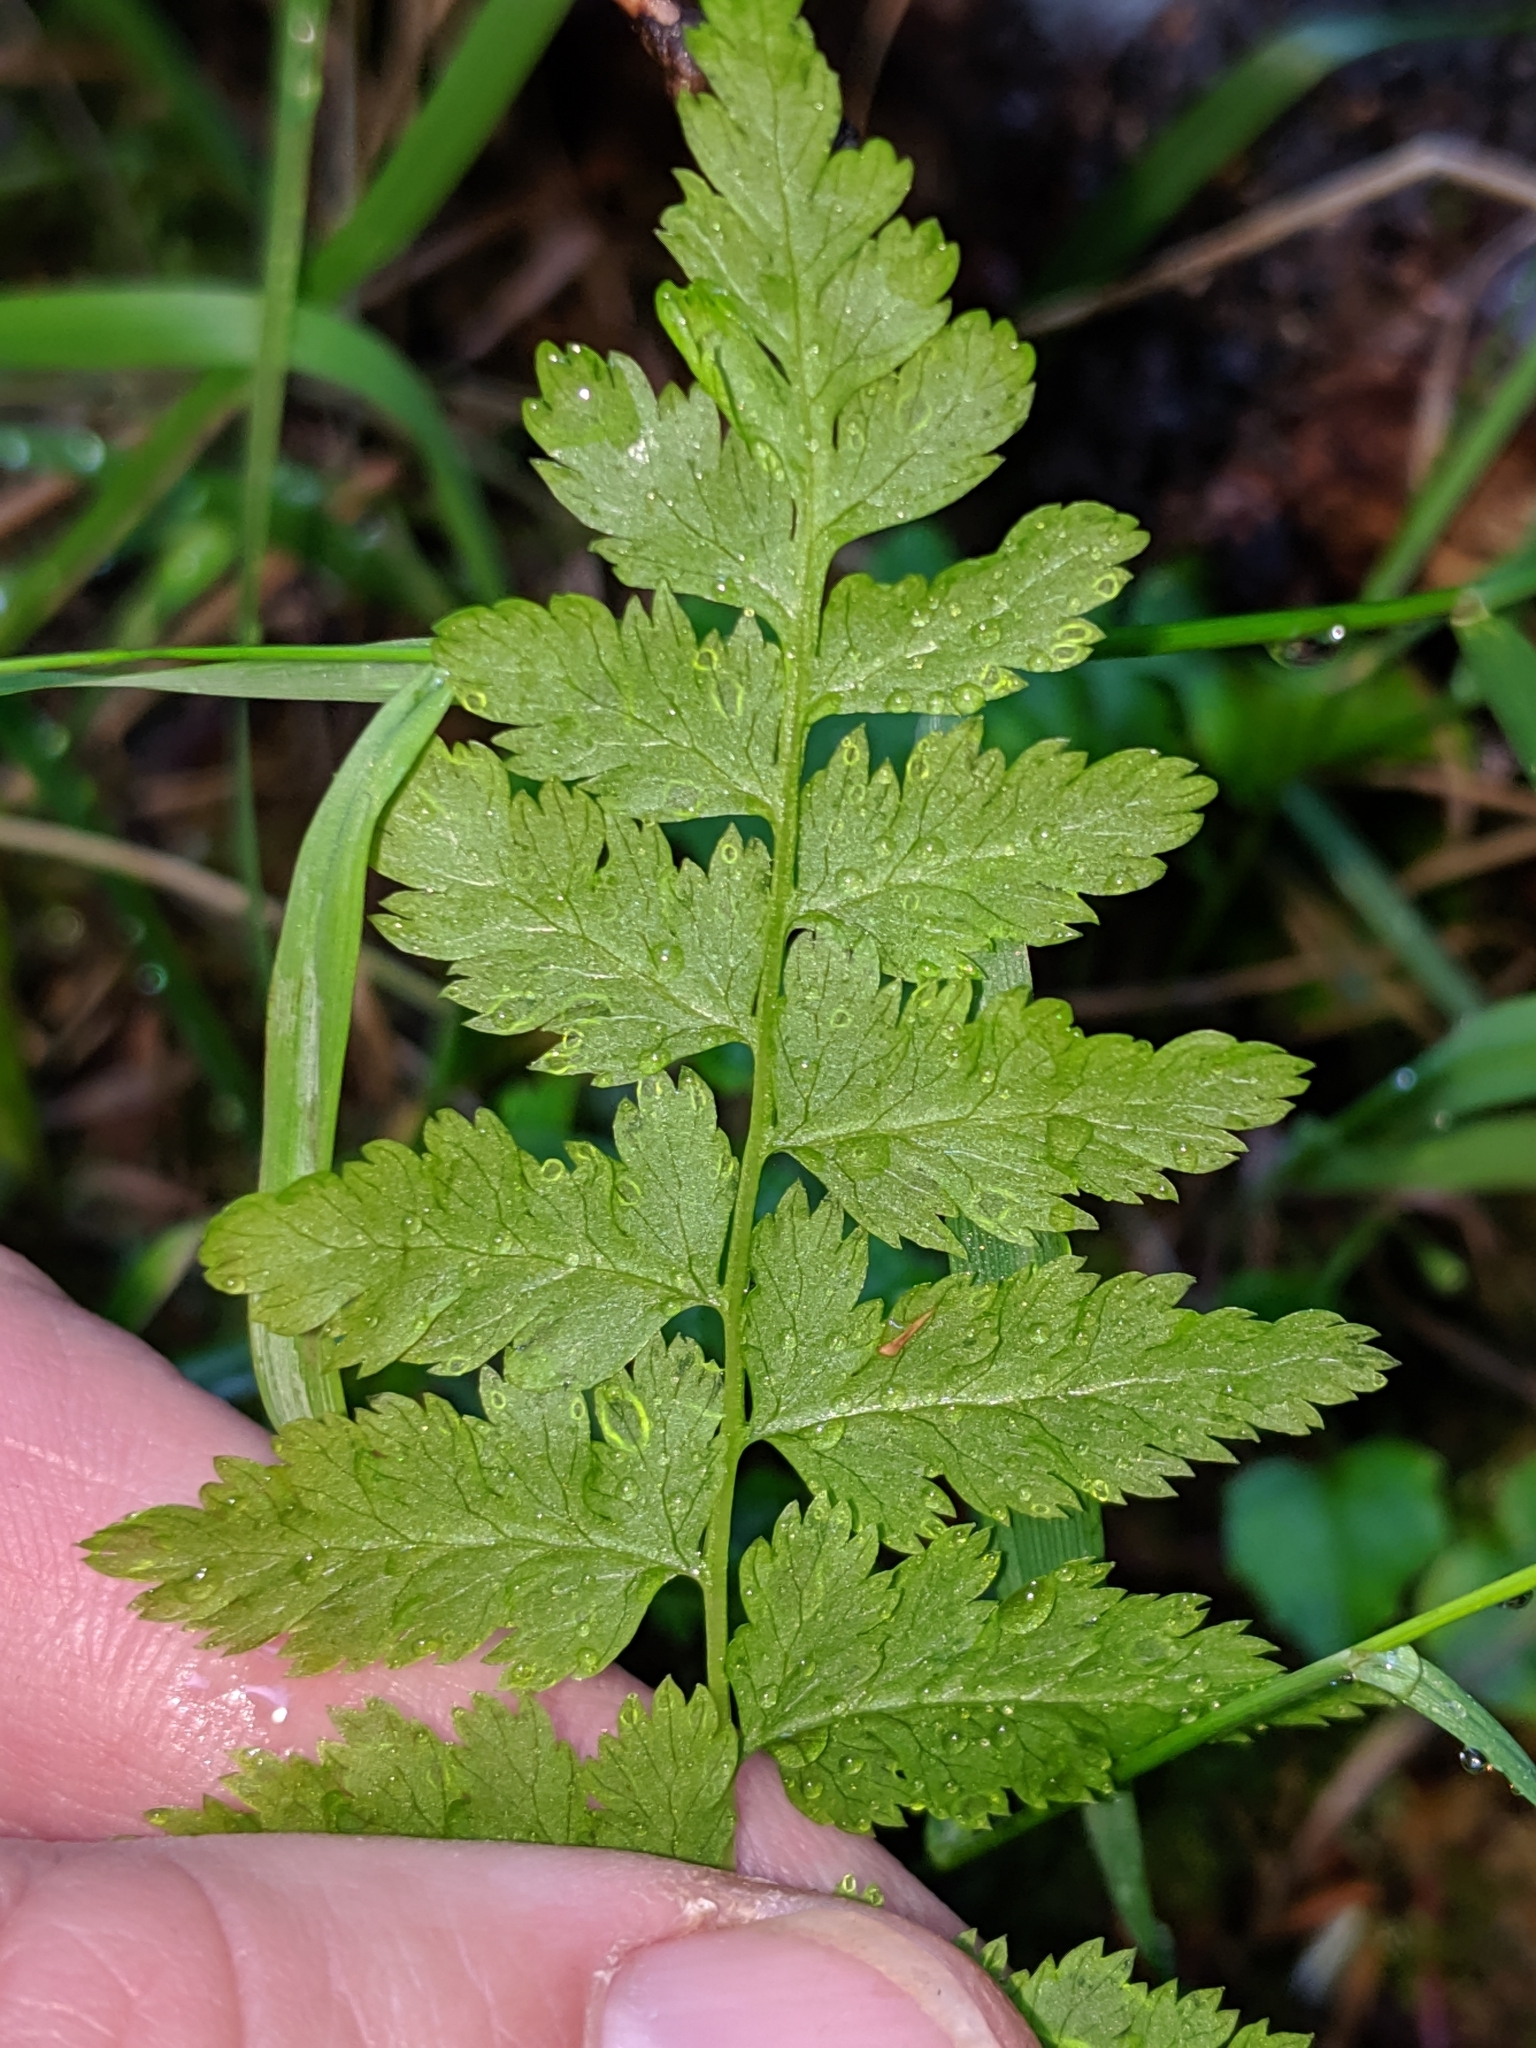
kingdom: Plantae
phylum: Tracheophyta
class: Polypodiopsida
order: Polypodiales
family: Athyriaceae
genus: Athyrium
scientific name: Athyrium filix-femina
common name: Lady fern
